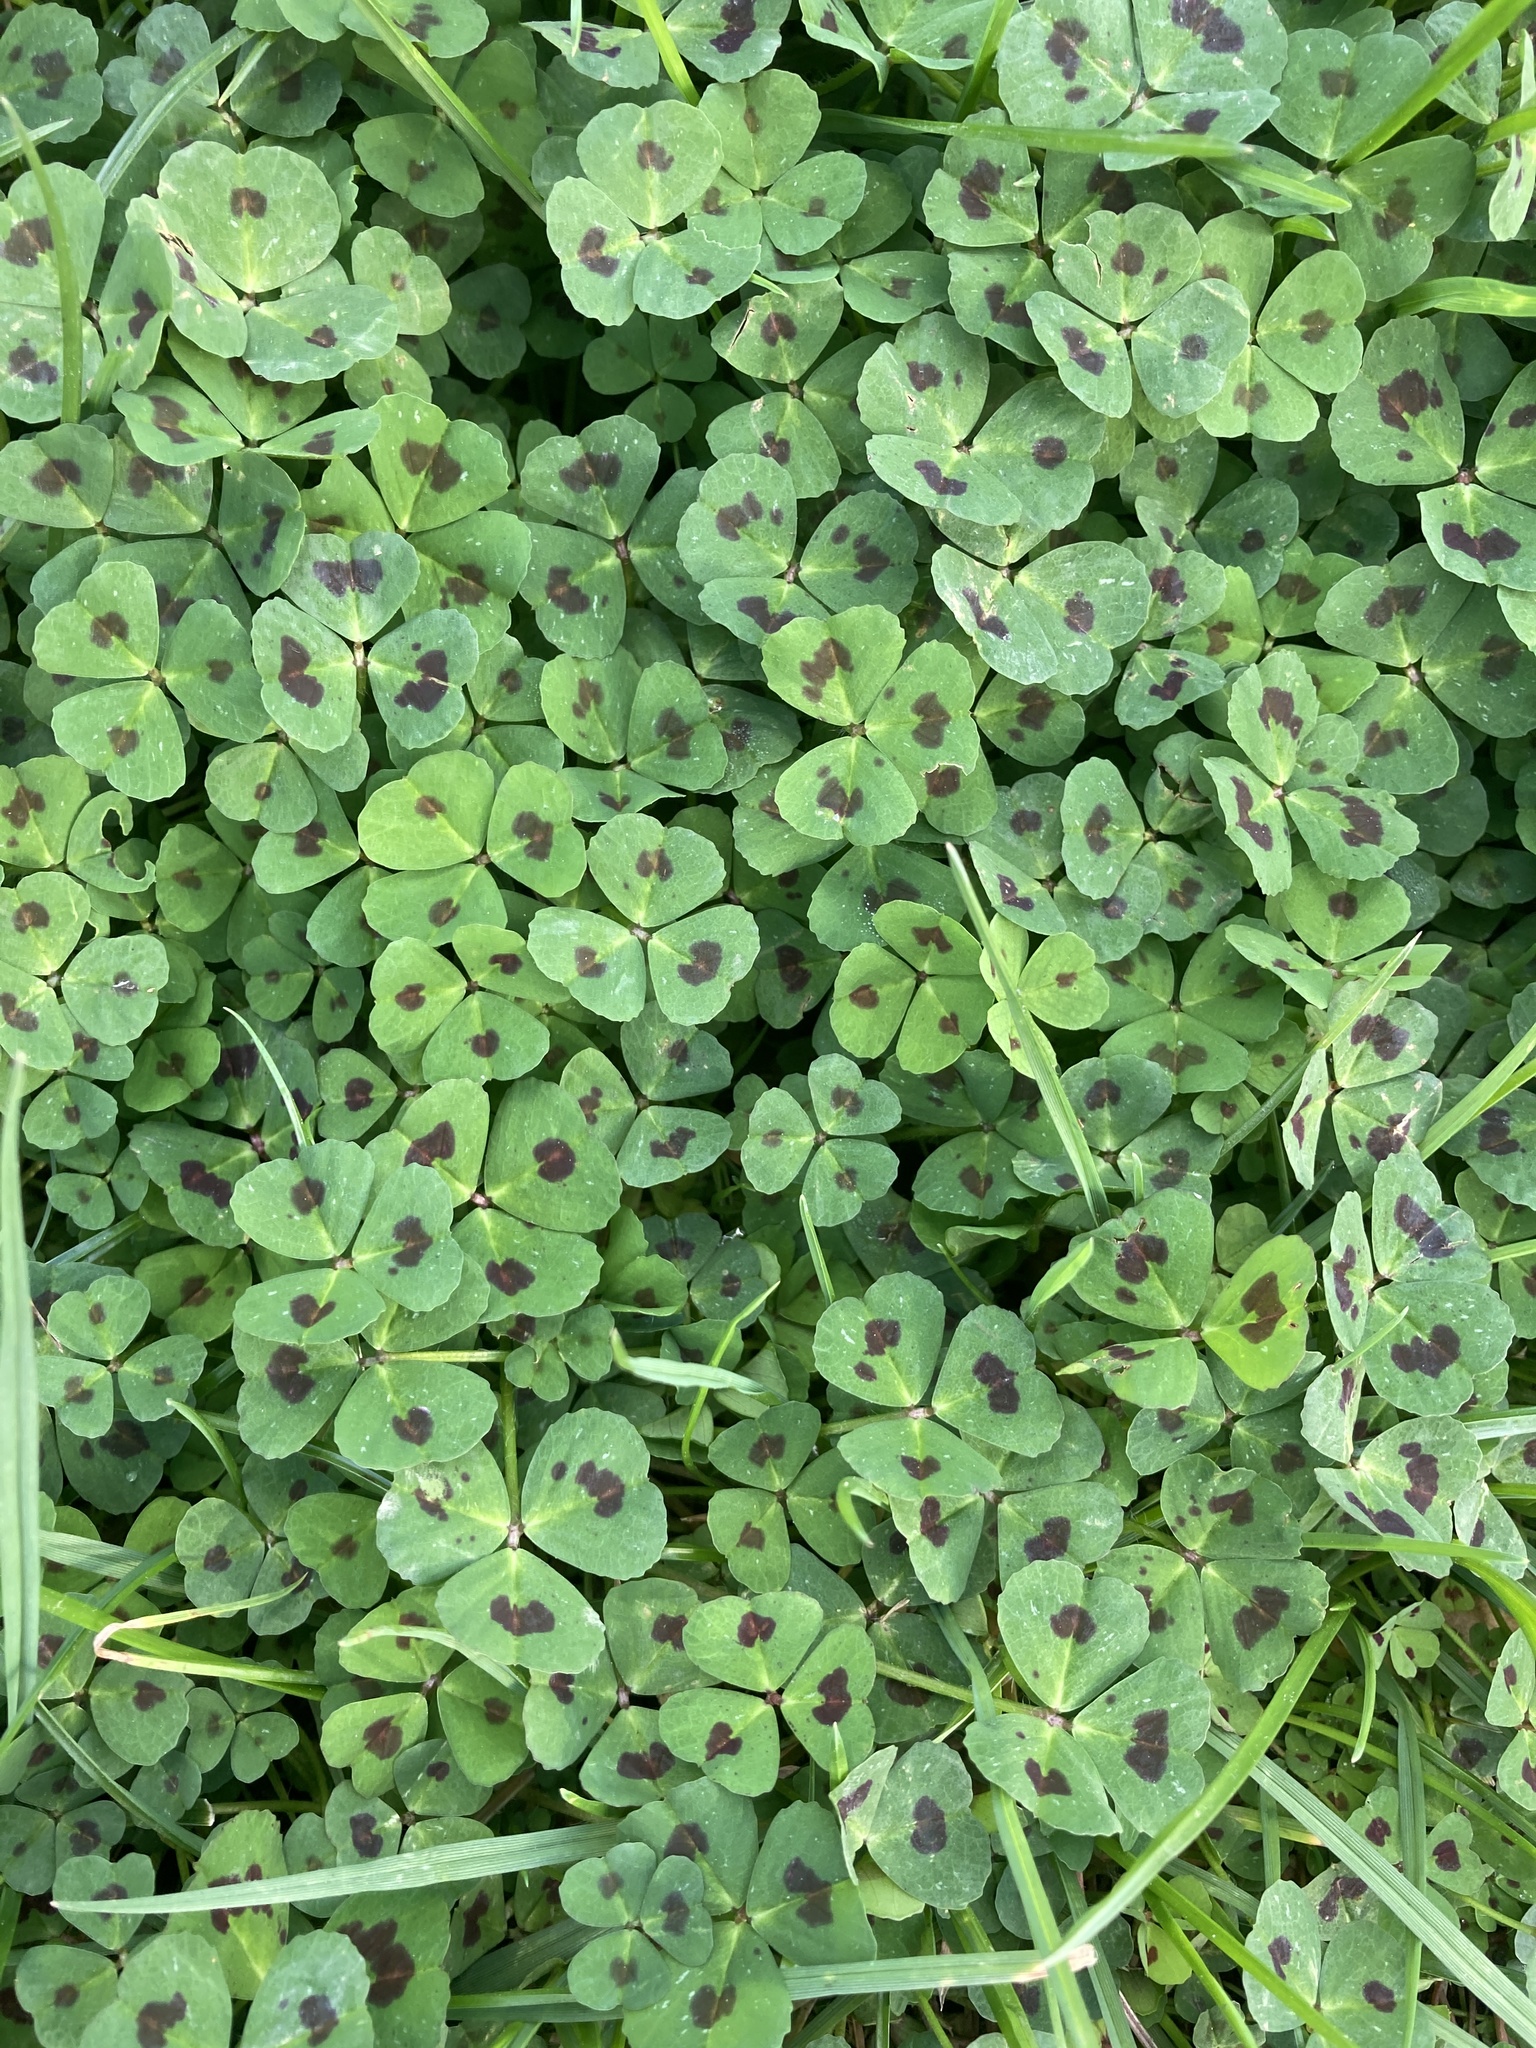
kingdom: Plantae
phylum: Tracheophyta
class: Magnoliopsida
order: Fabales
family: Fabaceae
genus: Medicago
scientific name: Medicago arabica
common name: Spotted medick
